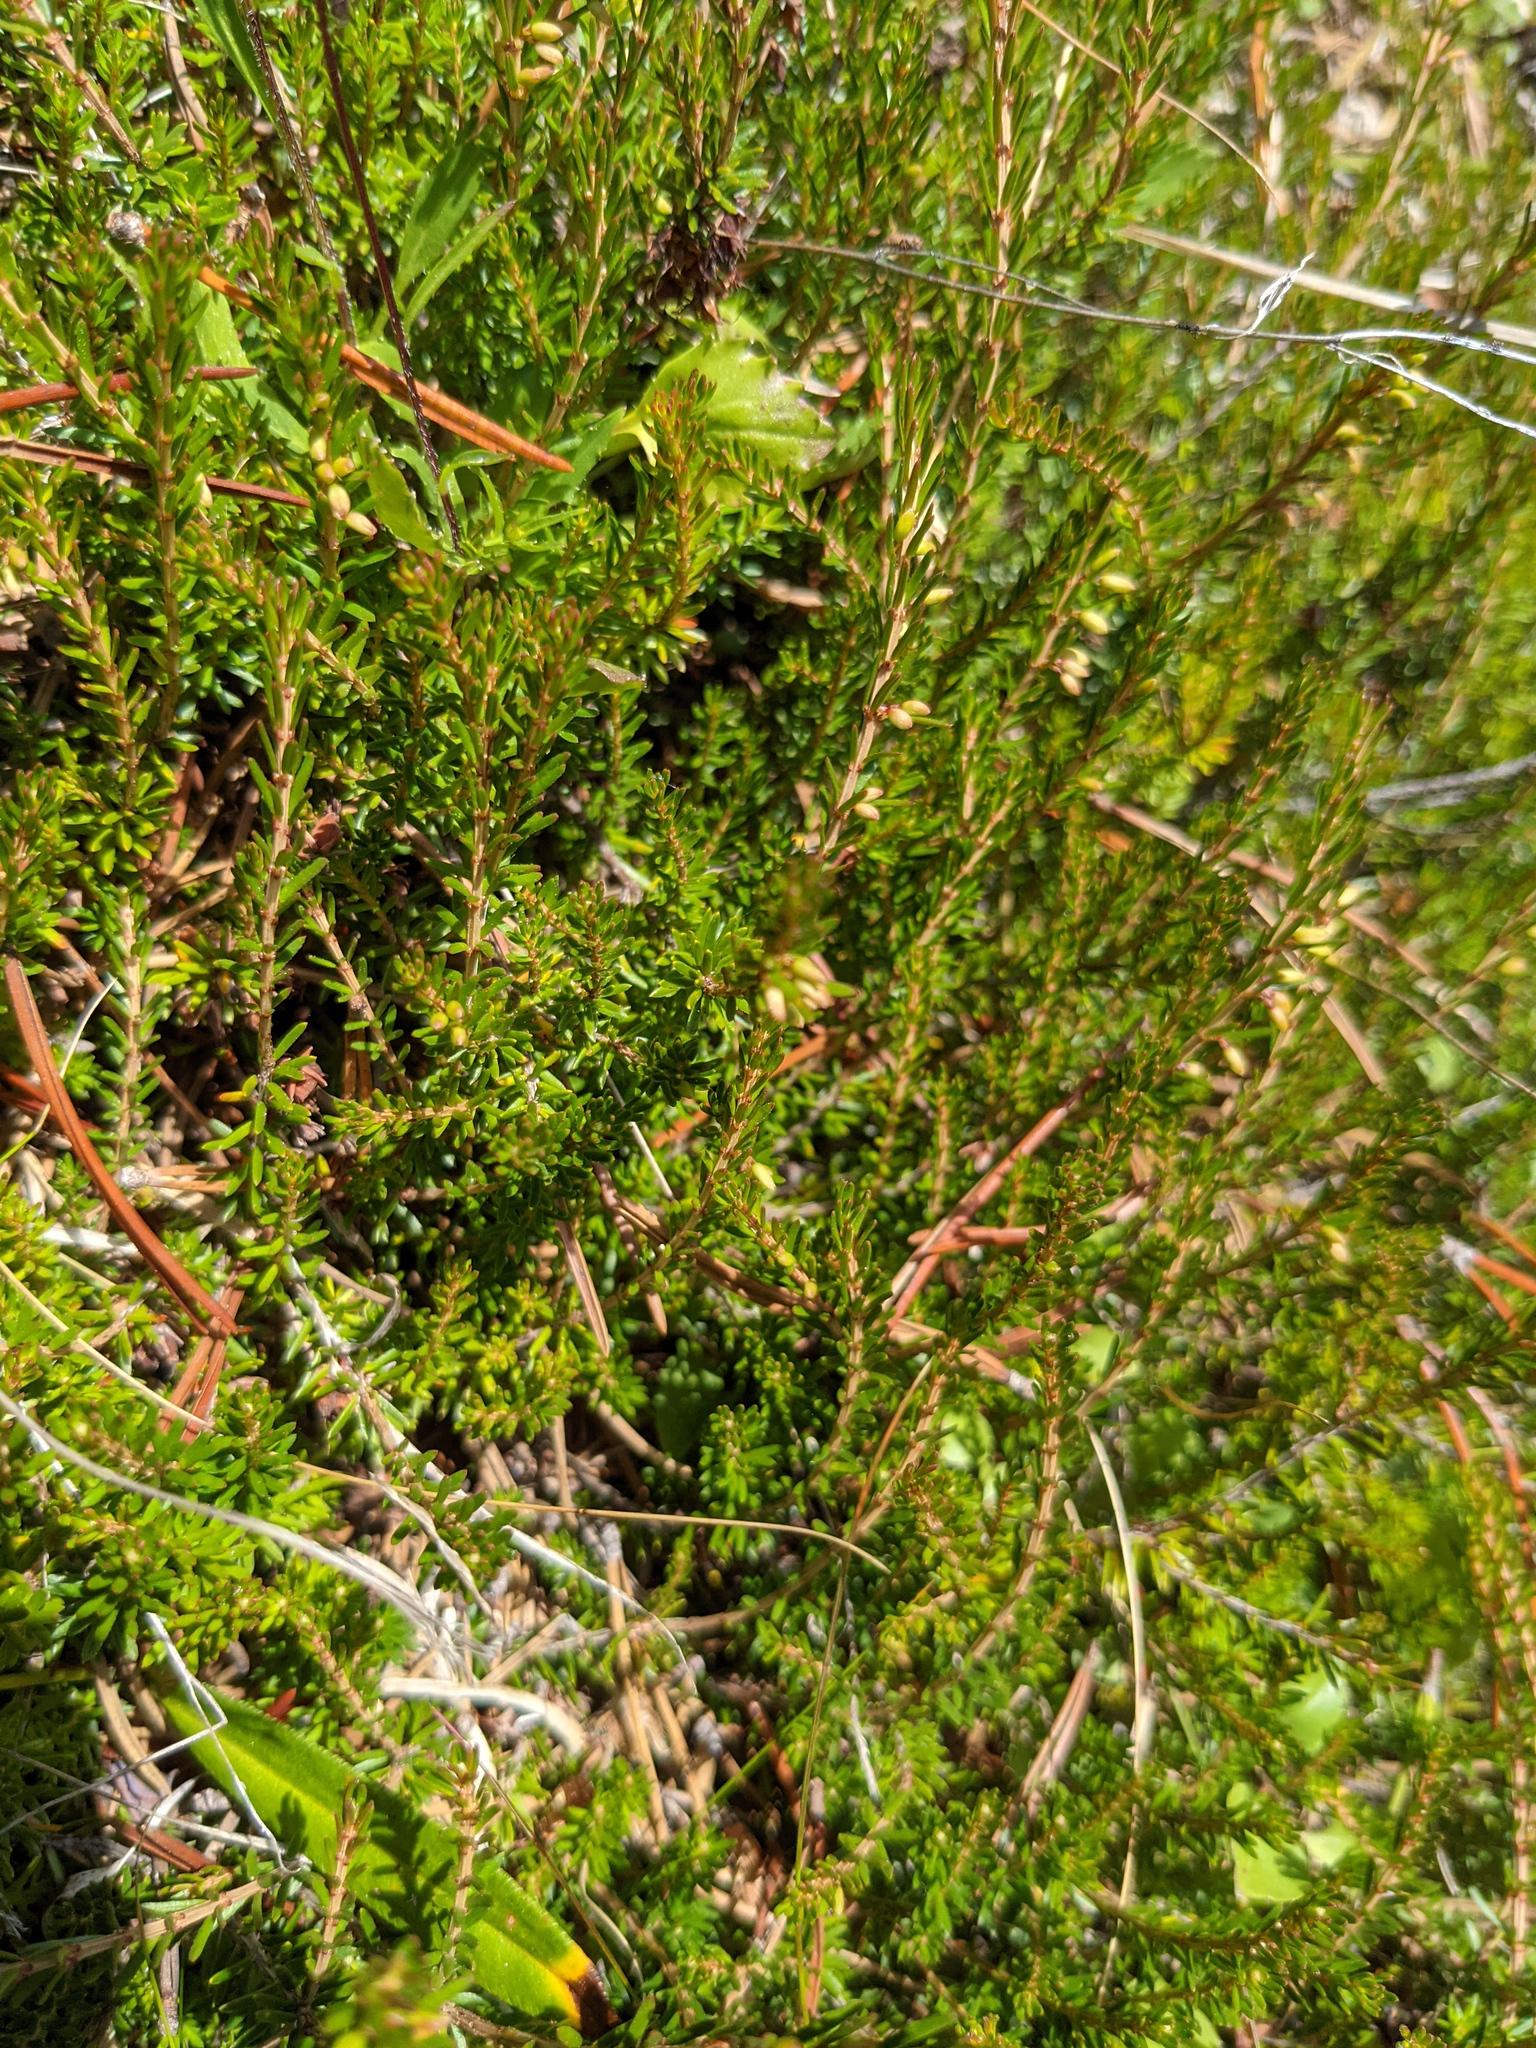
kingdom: Plantae
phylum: Tracheophyta
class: Magnoliopsida
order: Ericales
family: Ericaceae
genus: Calluna
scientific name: Calluna vulgaris
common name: Heather
